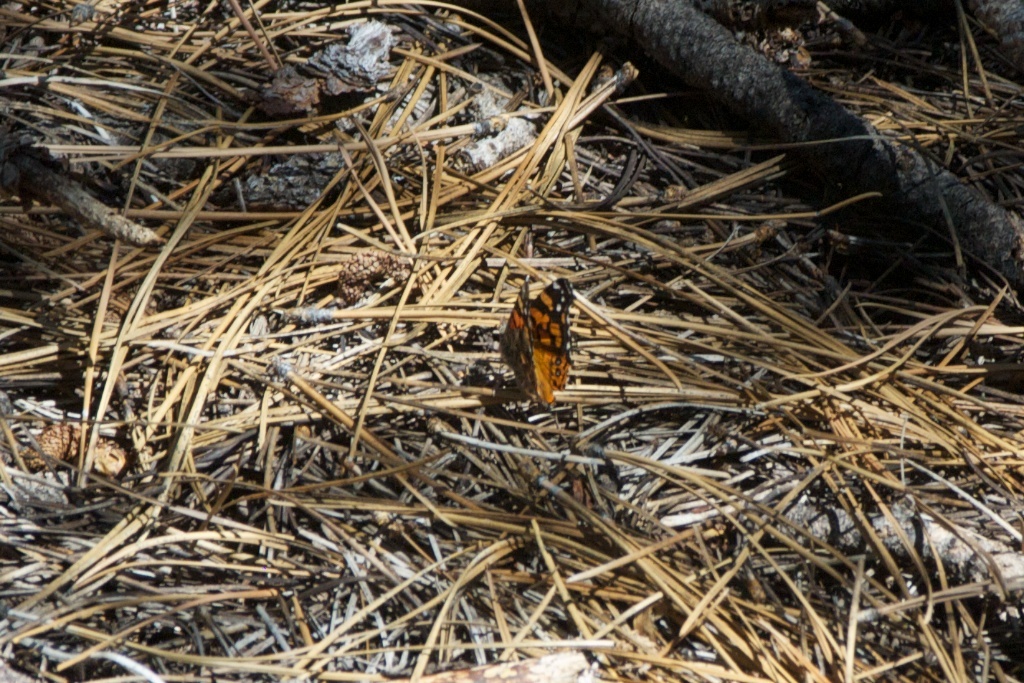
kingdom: Animalia
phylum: Arthropoda
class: Insecta
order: Lepidoptera
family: Nymphalidae
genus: Vanessa
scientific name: Vanessa annabella
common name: West coast lady
